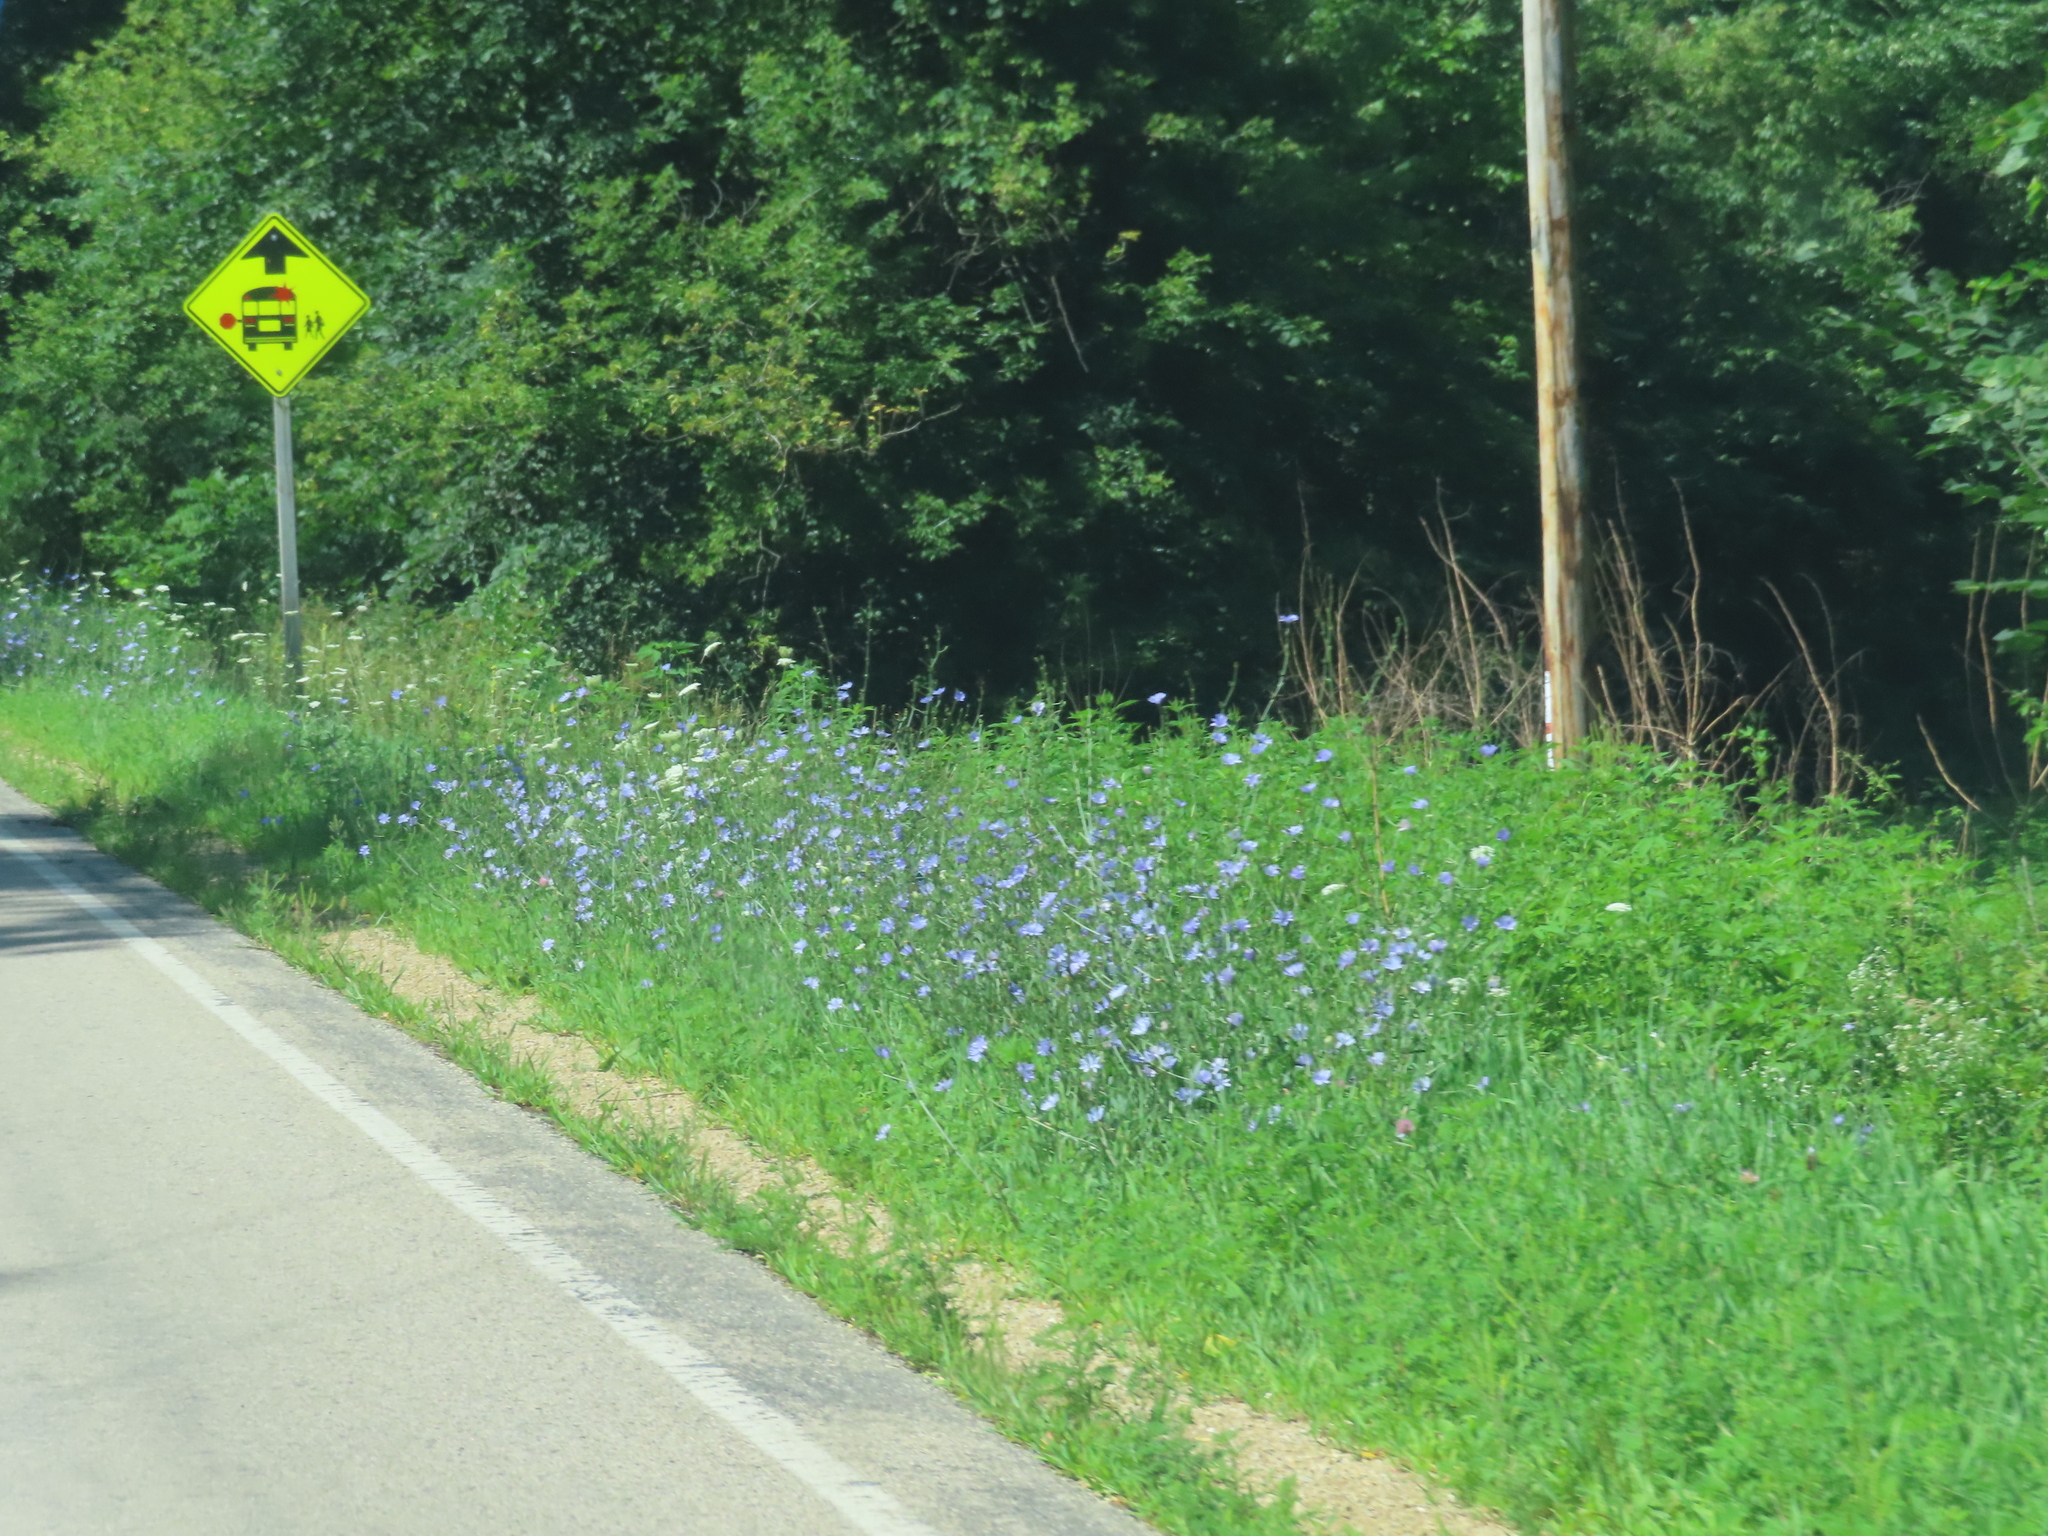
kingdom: Plantae
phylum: Tracheophyta
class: Magnoliopsida
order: Asterales
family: Asteraceae
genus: Cichorium
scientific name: Cichorium intybus
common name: Chicory
